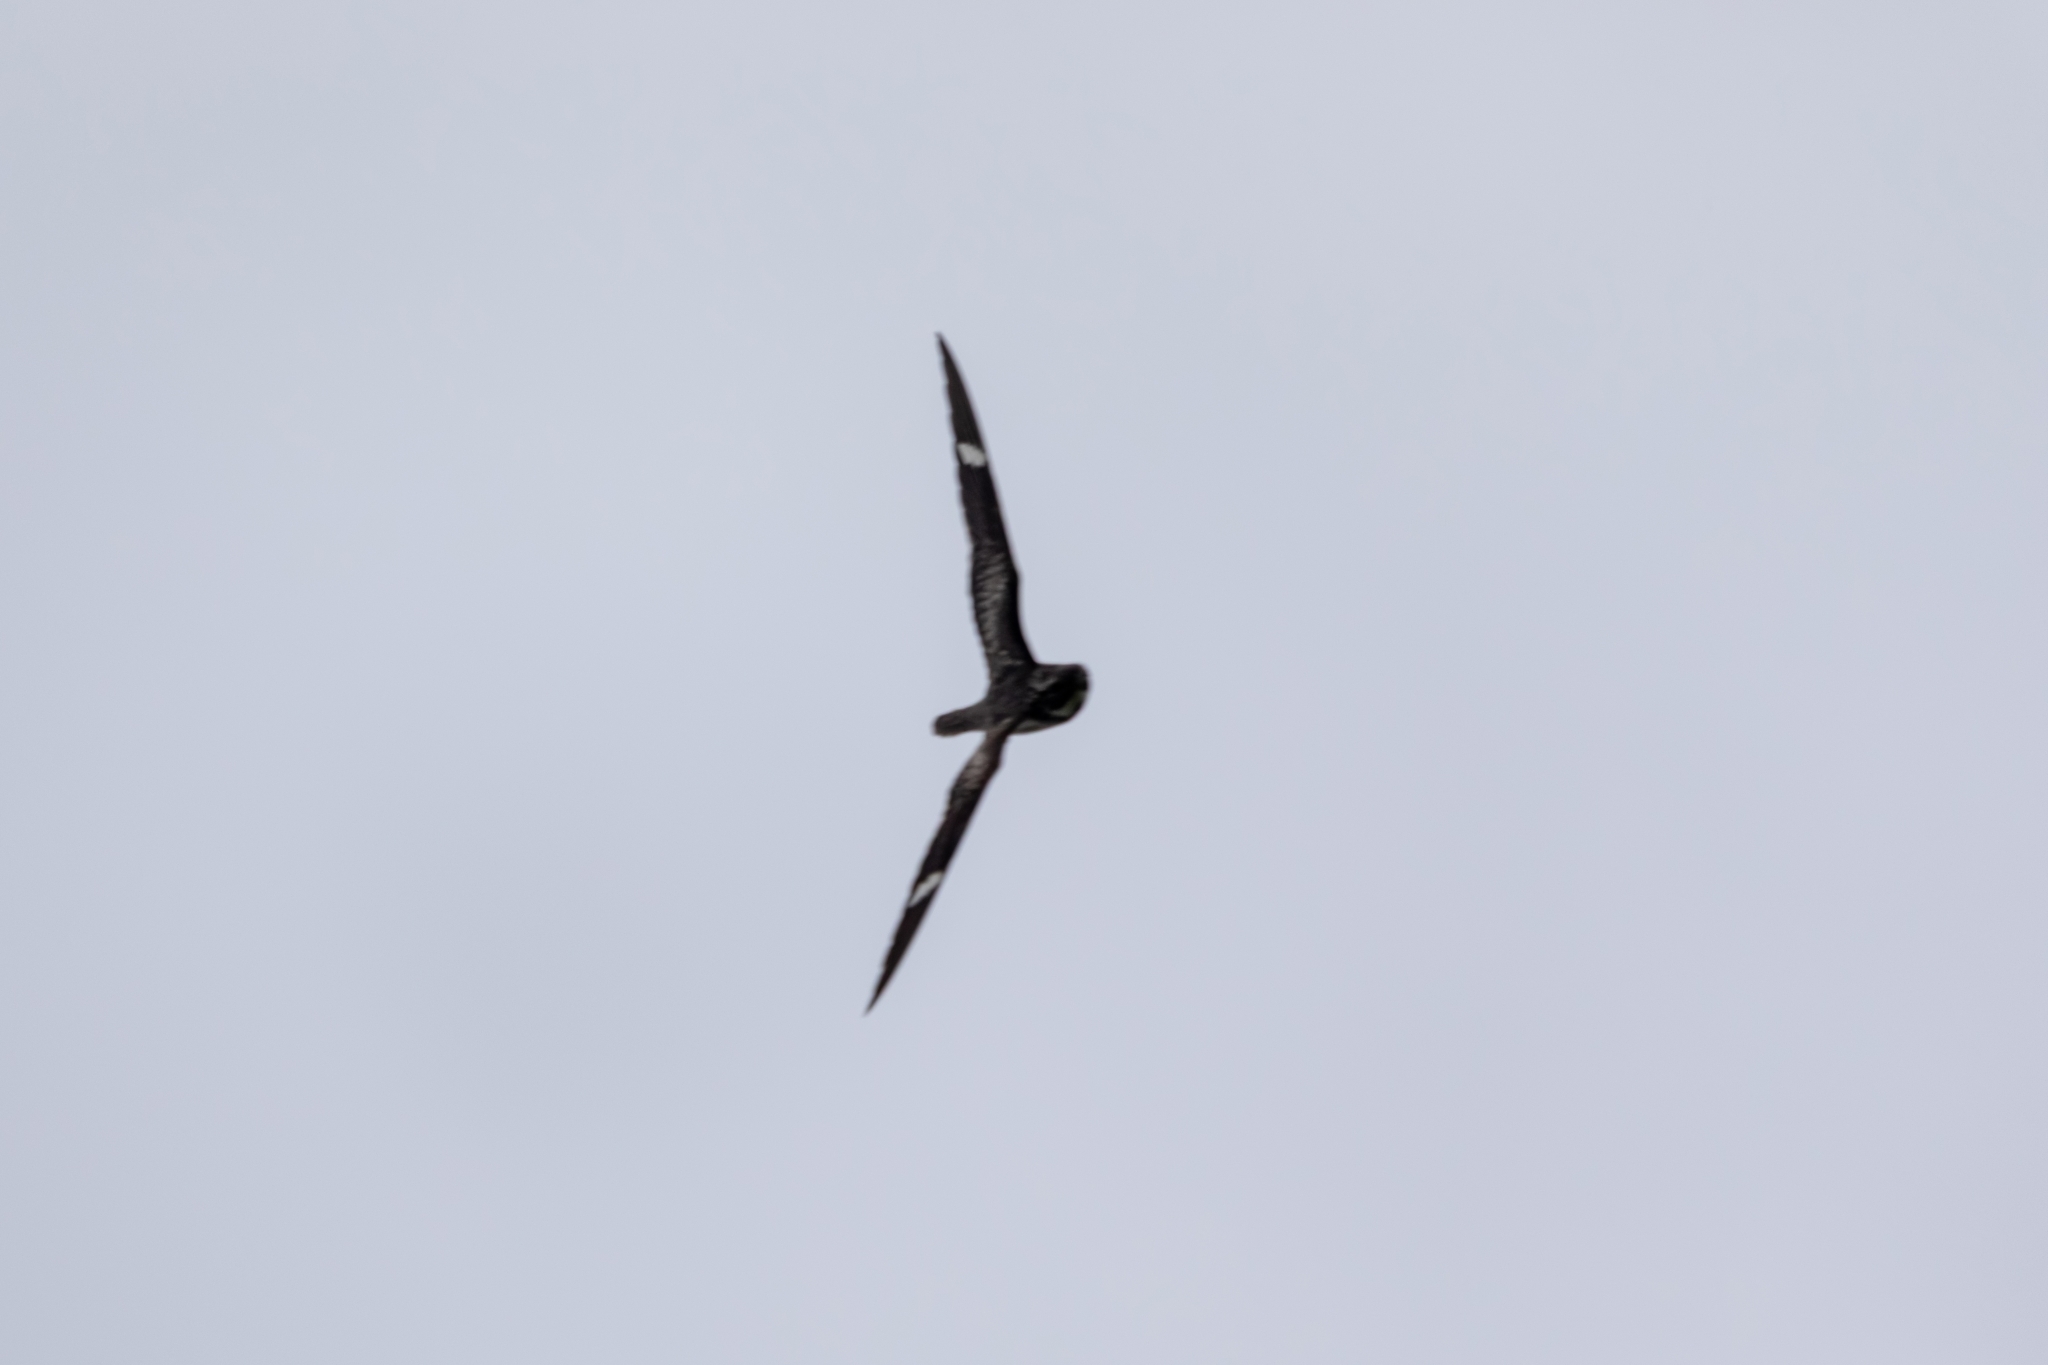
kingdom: Animalia
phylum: Chordata
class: Aves
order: Caprimulgiformes
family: Caprimulgidae
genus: Chordeiles
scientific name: Chordeiles minor
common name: Common nighthawk
